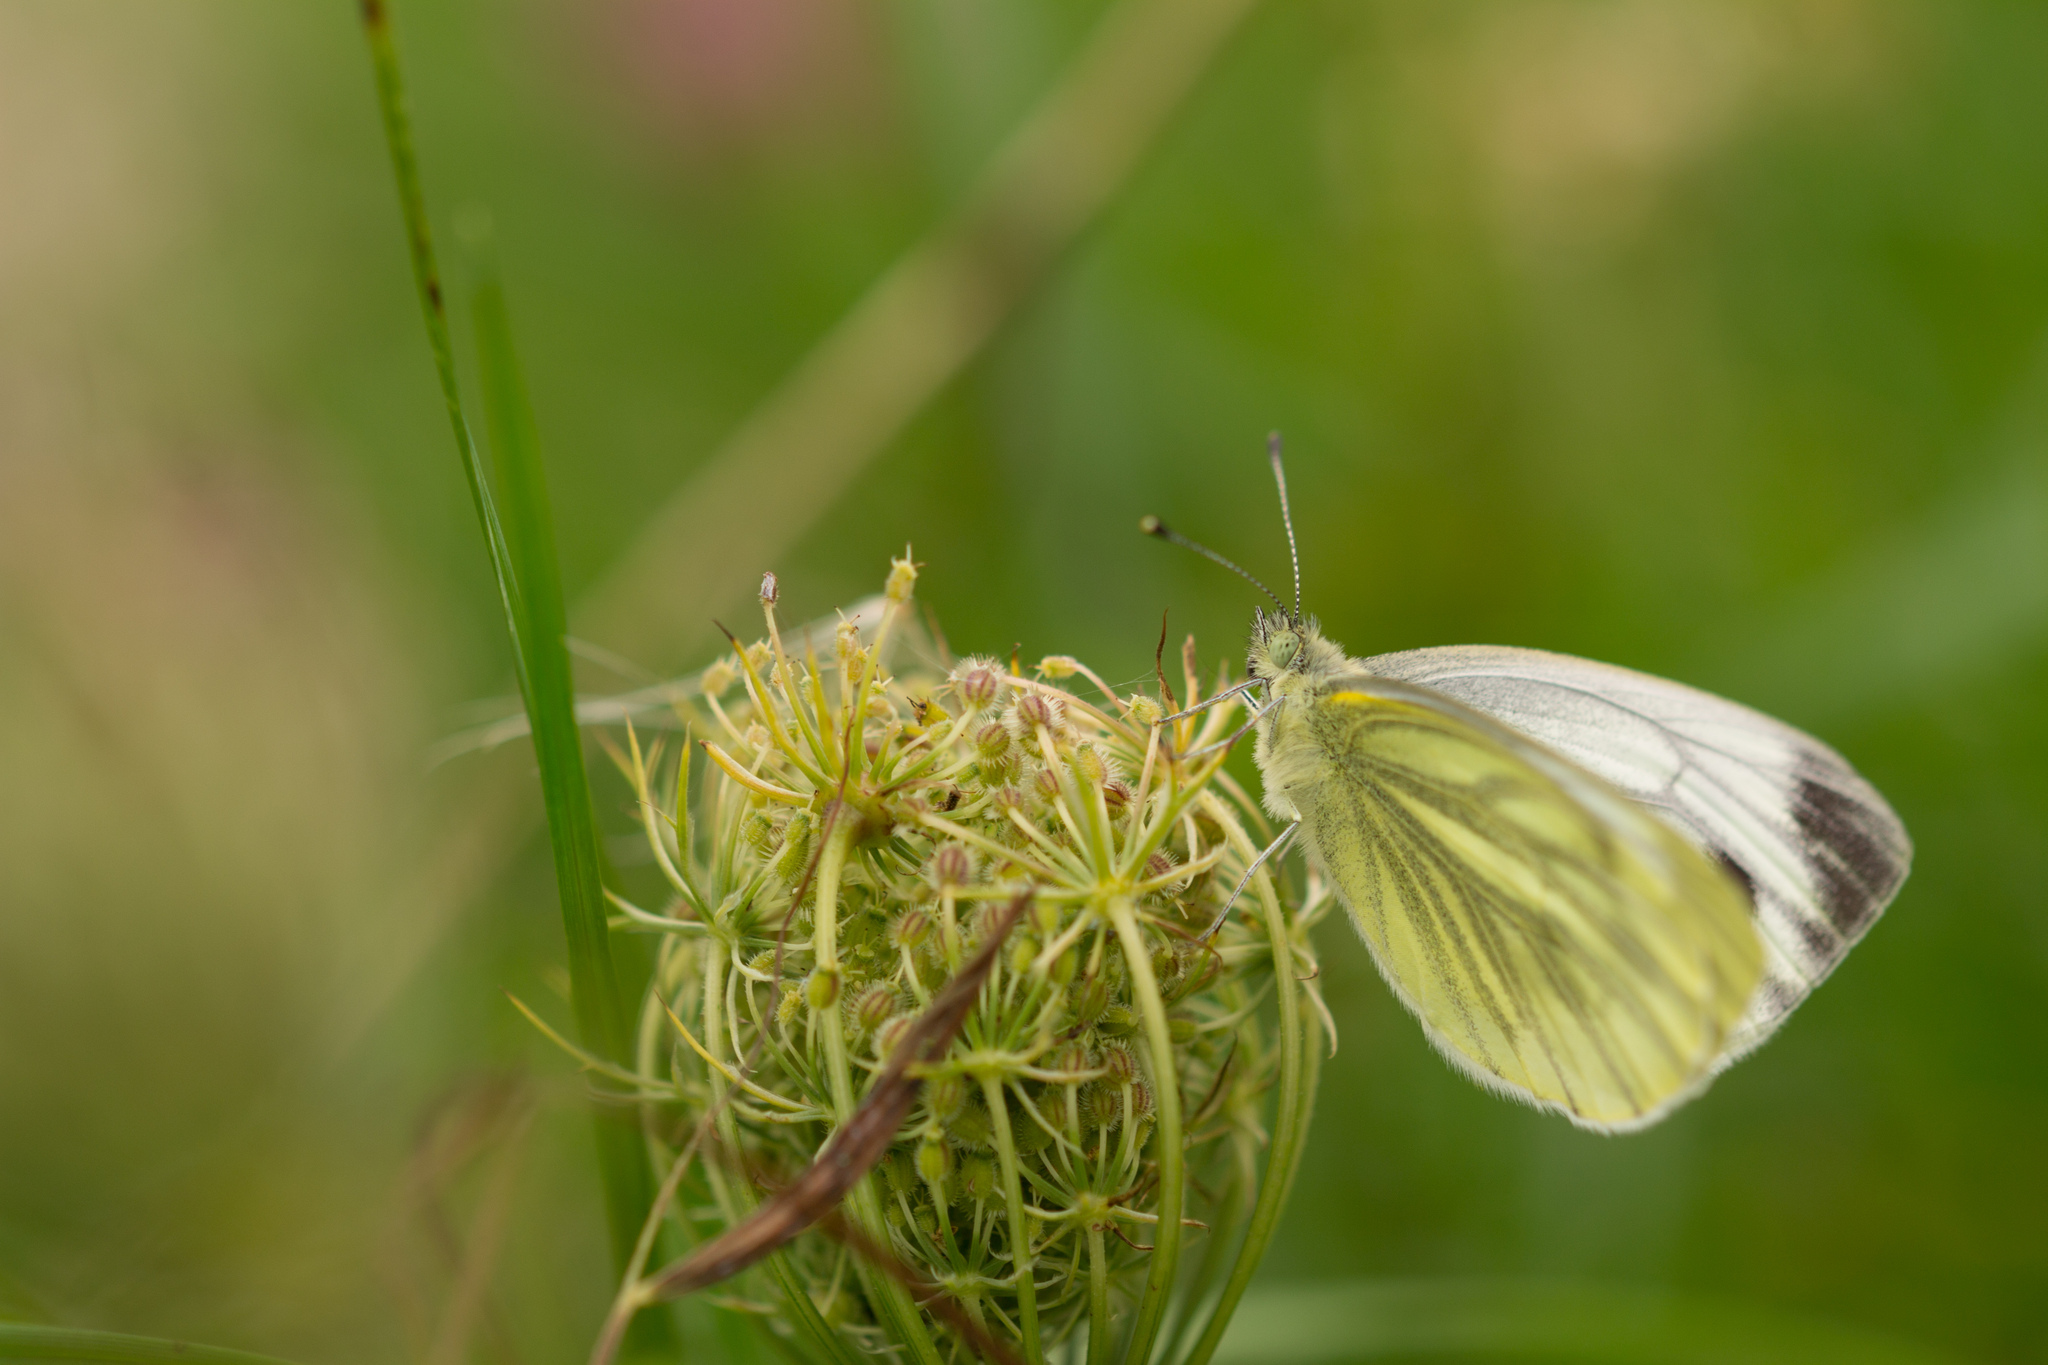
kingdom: Animalia
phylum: Arthropoda
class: Insecta
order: Lepidoptera
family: Pieridae
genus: Pieris
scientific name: Pieris napi
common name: Green-veined white
